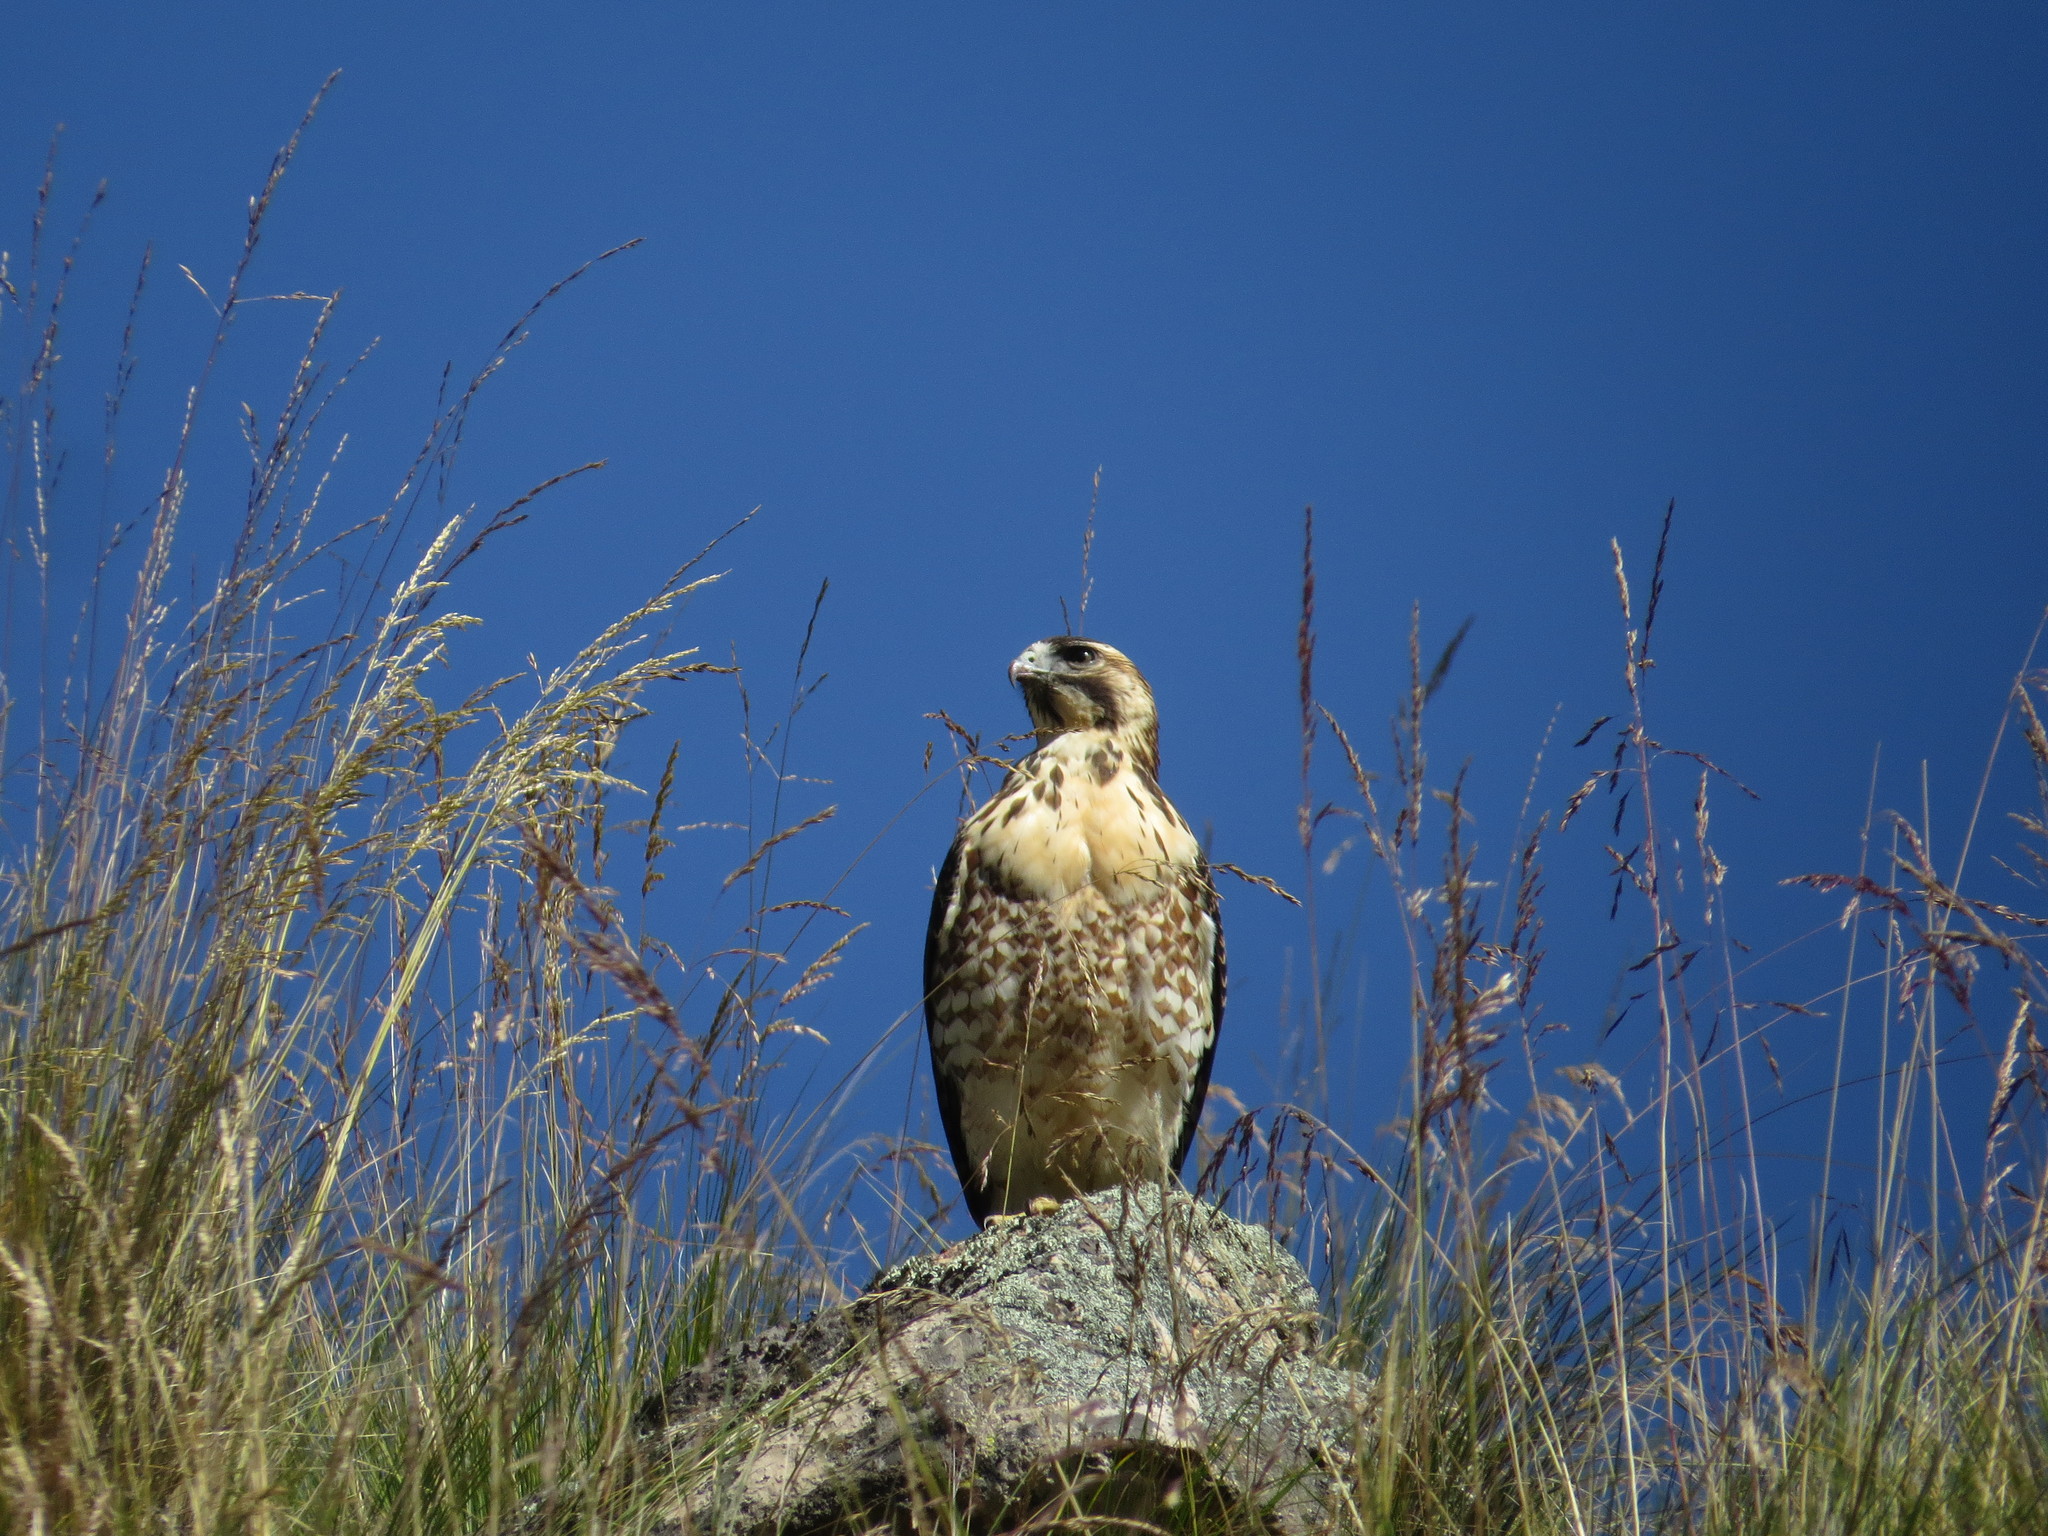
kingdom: Animalia
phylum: Chordata
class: Aves
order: Accipitriformes
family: Accipitridae
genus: Buteo
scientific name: Buteo polyosoma
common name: Variable hawk
